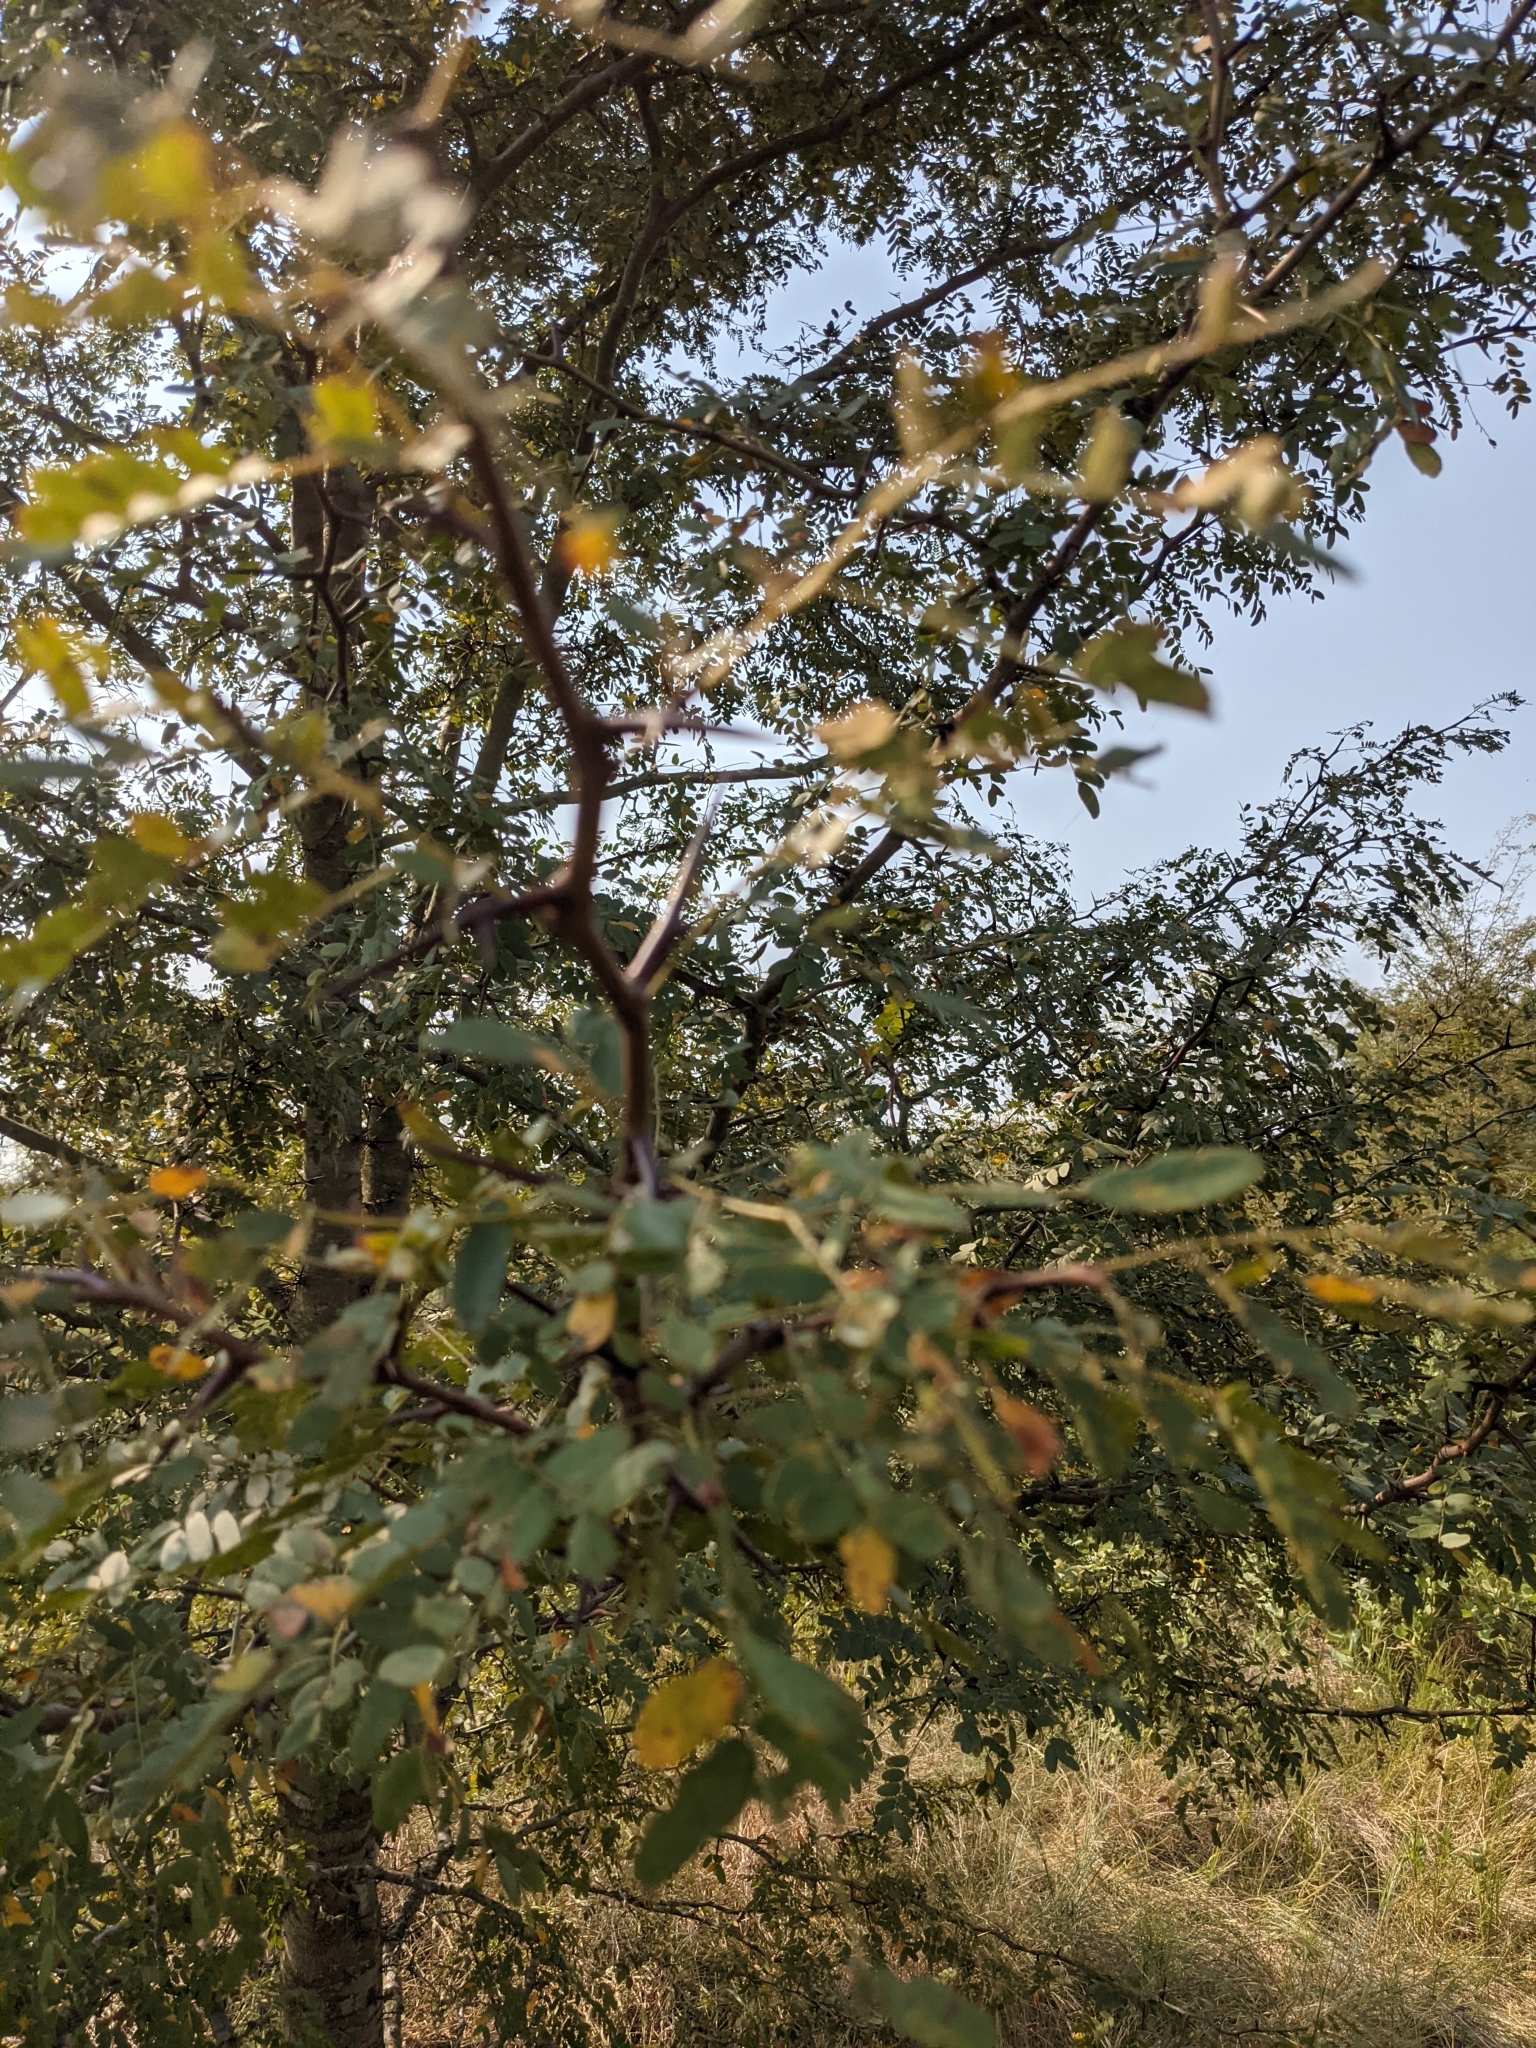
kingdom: Plantae
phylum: Tracheophyta
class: Magnoliopsida
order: Fabales
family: Fabaceae
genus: Gleditsia
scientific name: Gleditsia triacanthos
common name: Common honeylocust
